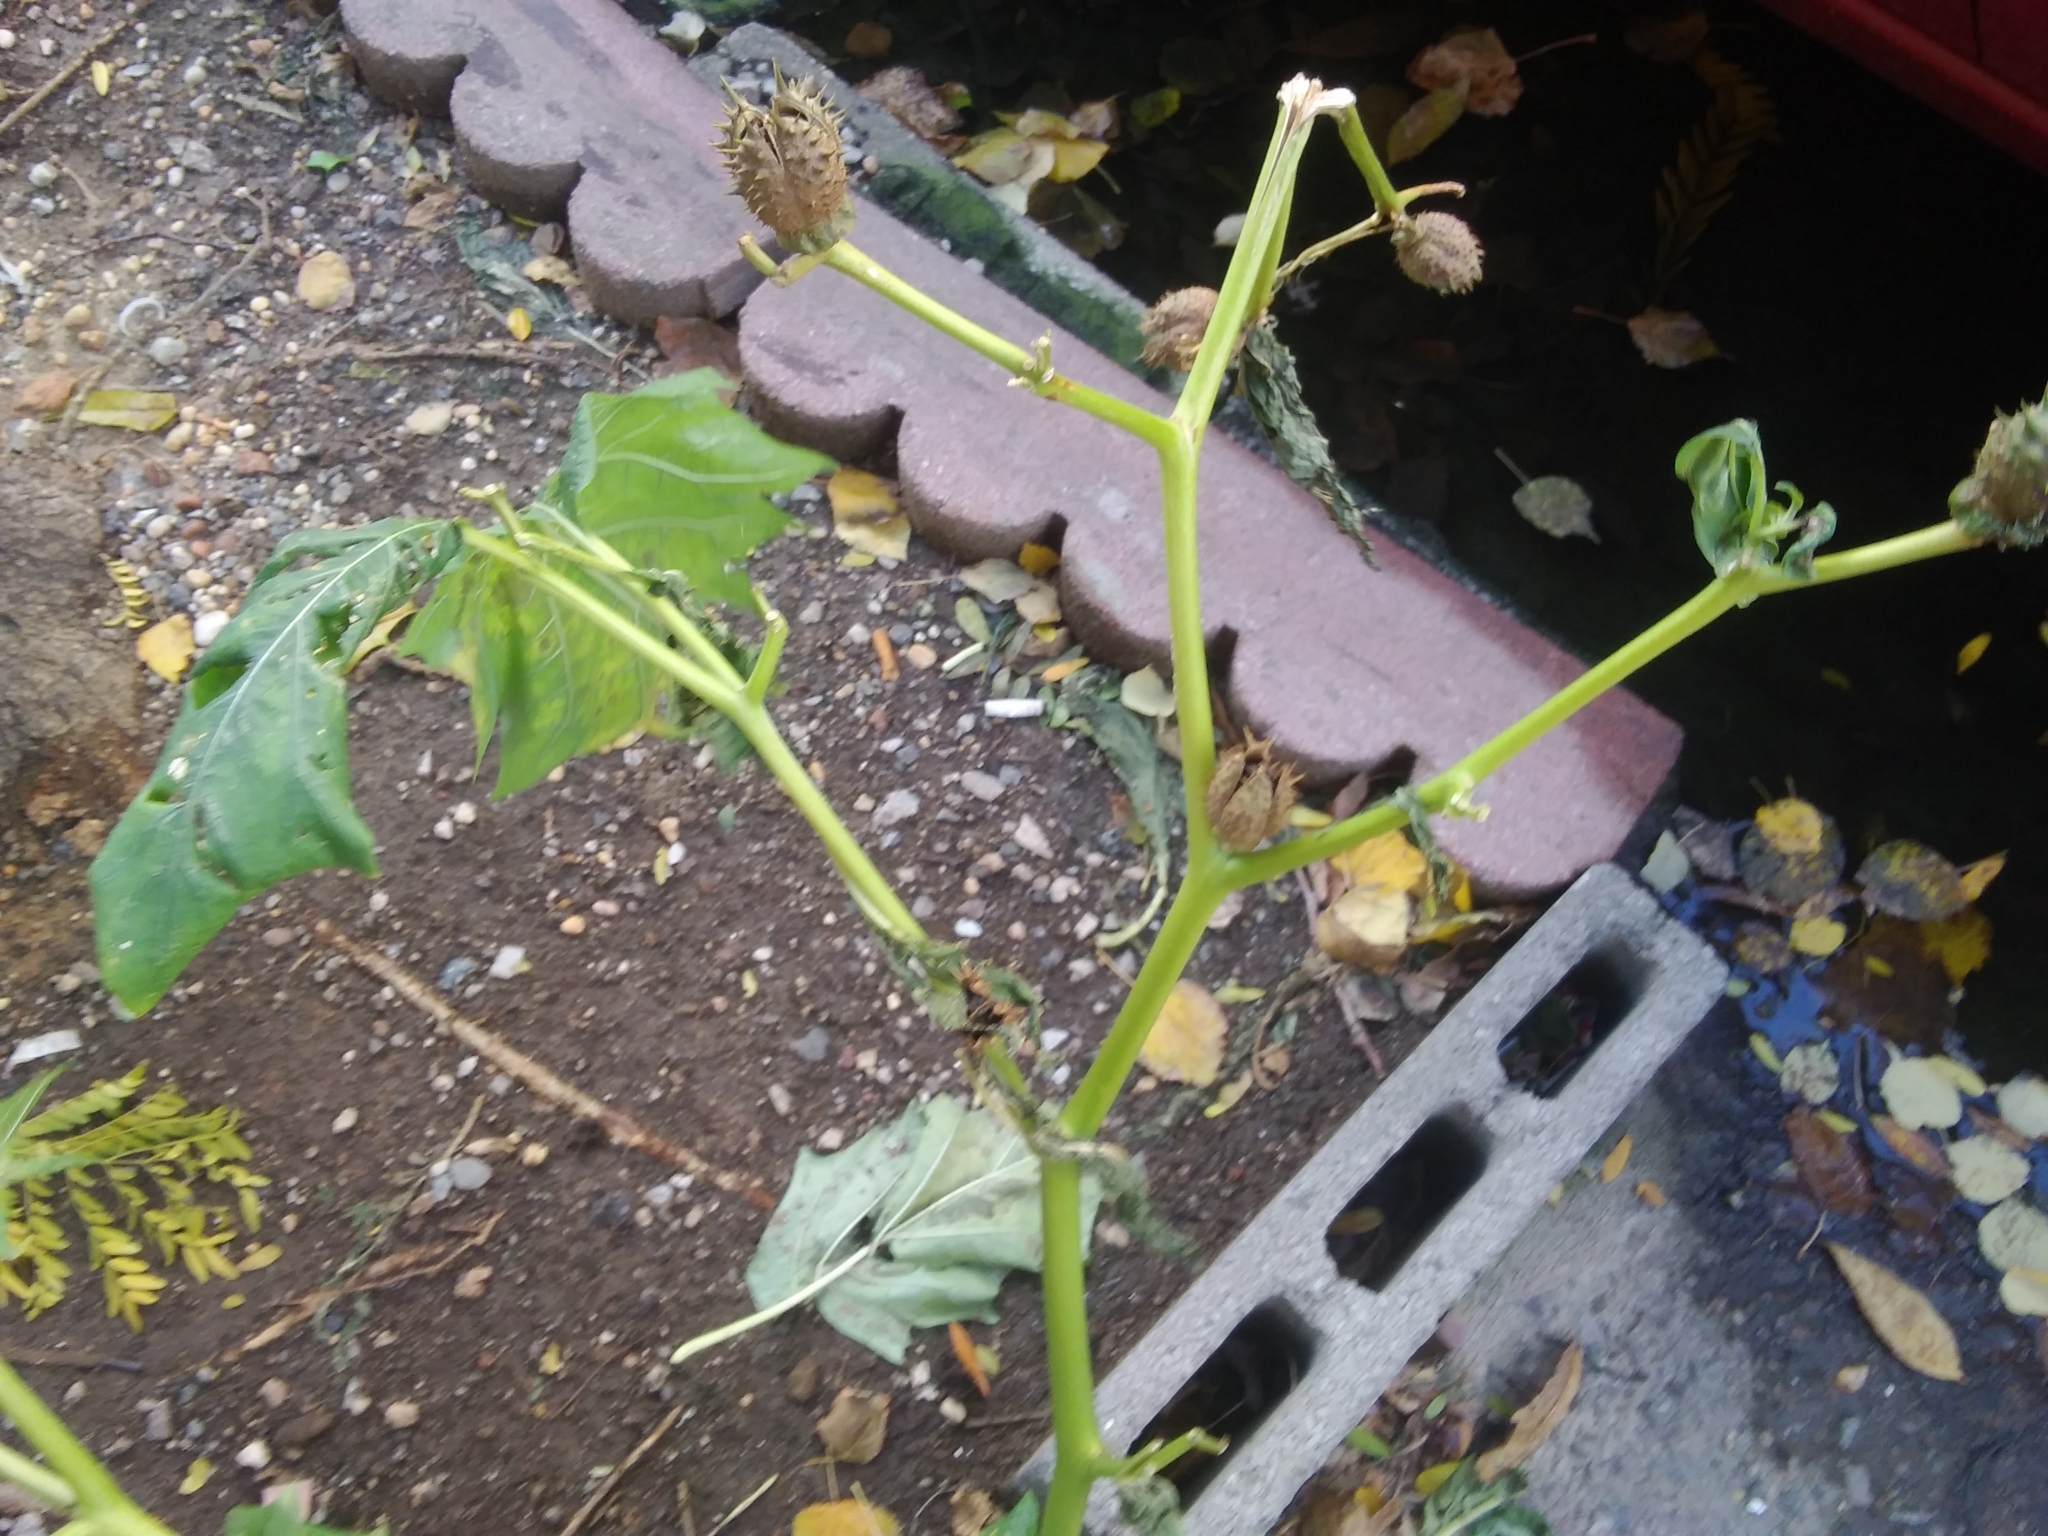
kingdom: Plantae
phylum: Tracheophyta
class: Magnoliopsida
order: Solanales
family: Solanaceae
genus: Datura
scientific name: Datura stramonium
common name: Thorn-apple
